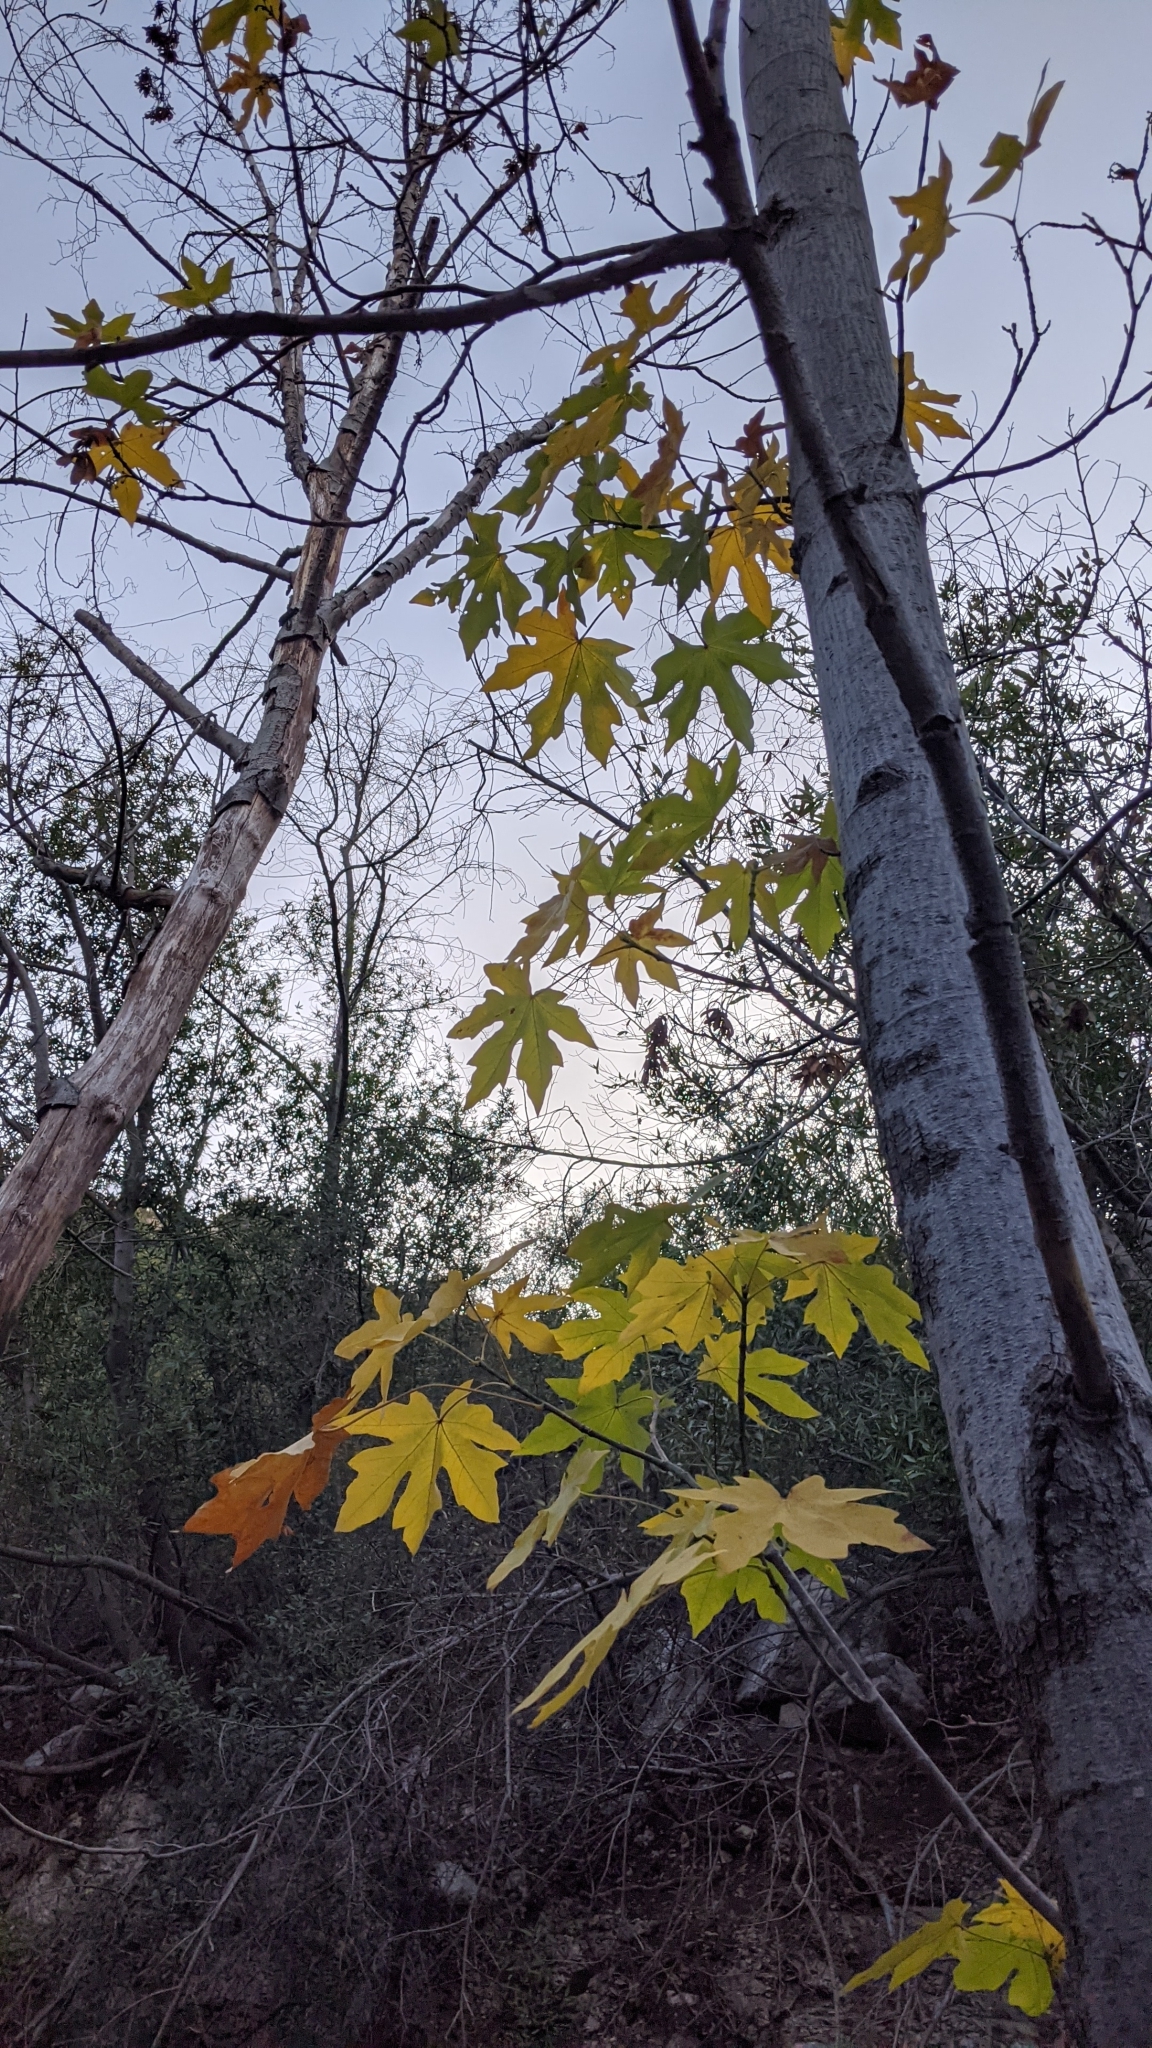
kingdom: Plantae
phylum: Tracheophyta
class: Magnoliopsida
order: Sapindales
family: Sapindaceae
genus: Acer
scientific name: Acer macrophyllum
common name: Oregon maple
